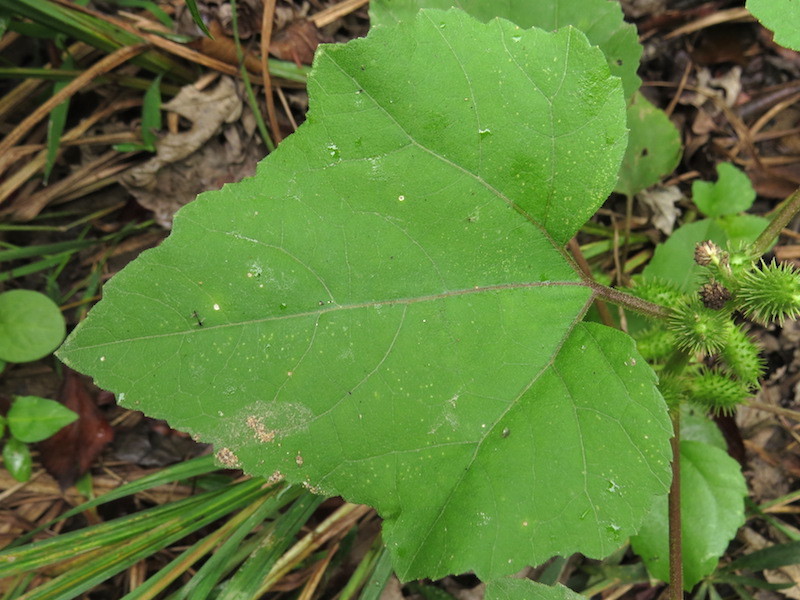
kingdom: Plantae
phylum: Tracheophyta
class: Magnoliopsida
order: Asterales
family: Asteraceae
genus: Xanthium
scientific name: Xanthium strumarium
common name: Rough cocklebur
